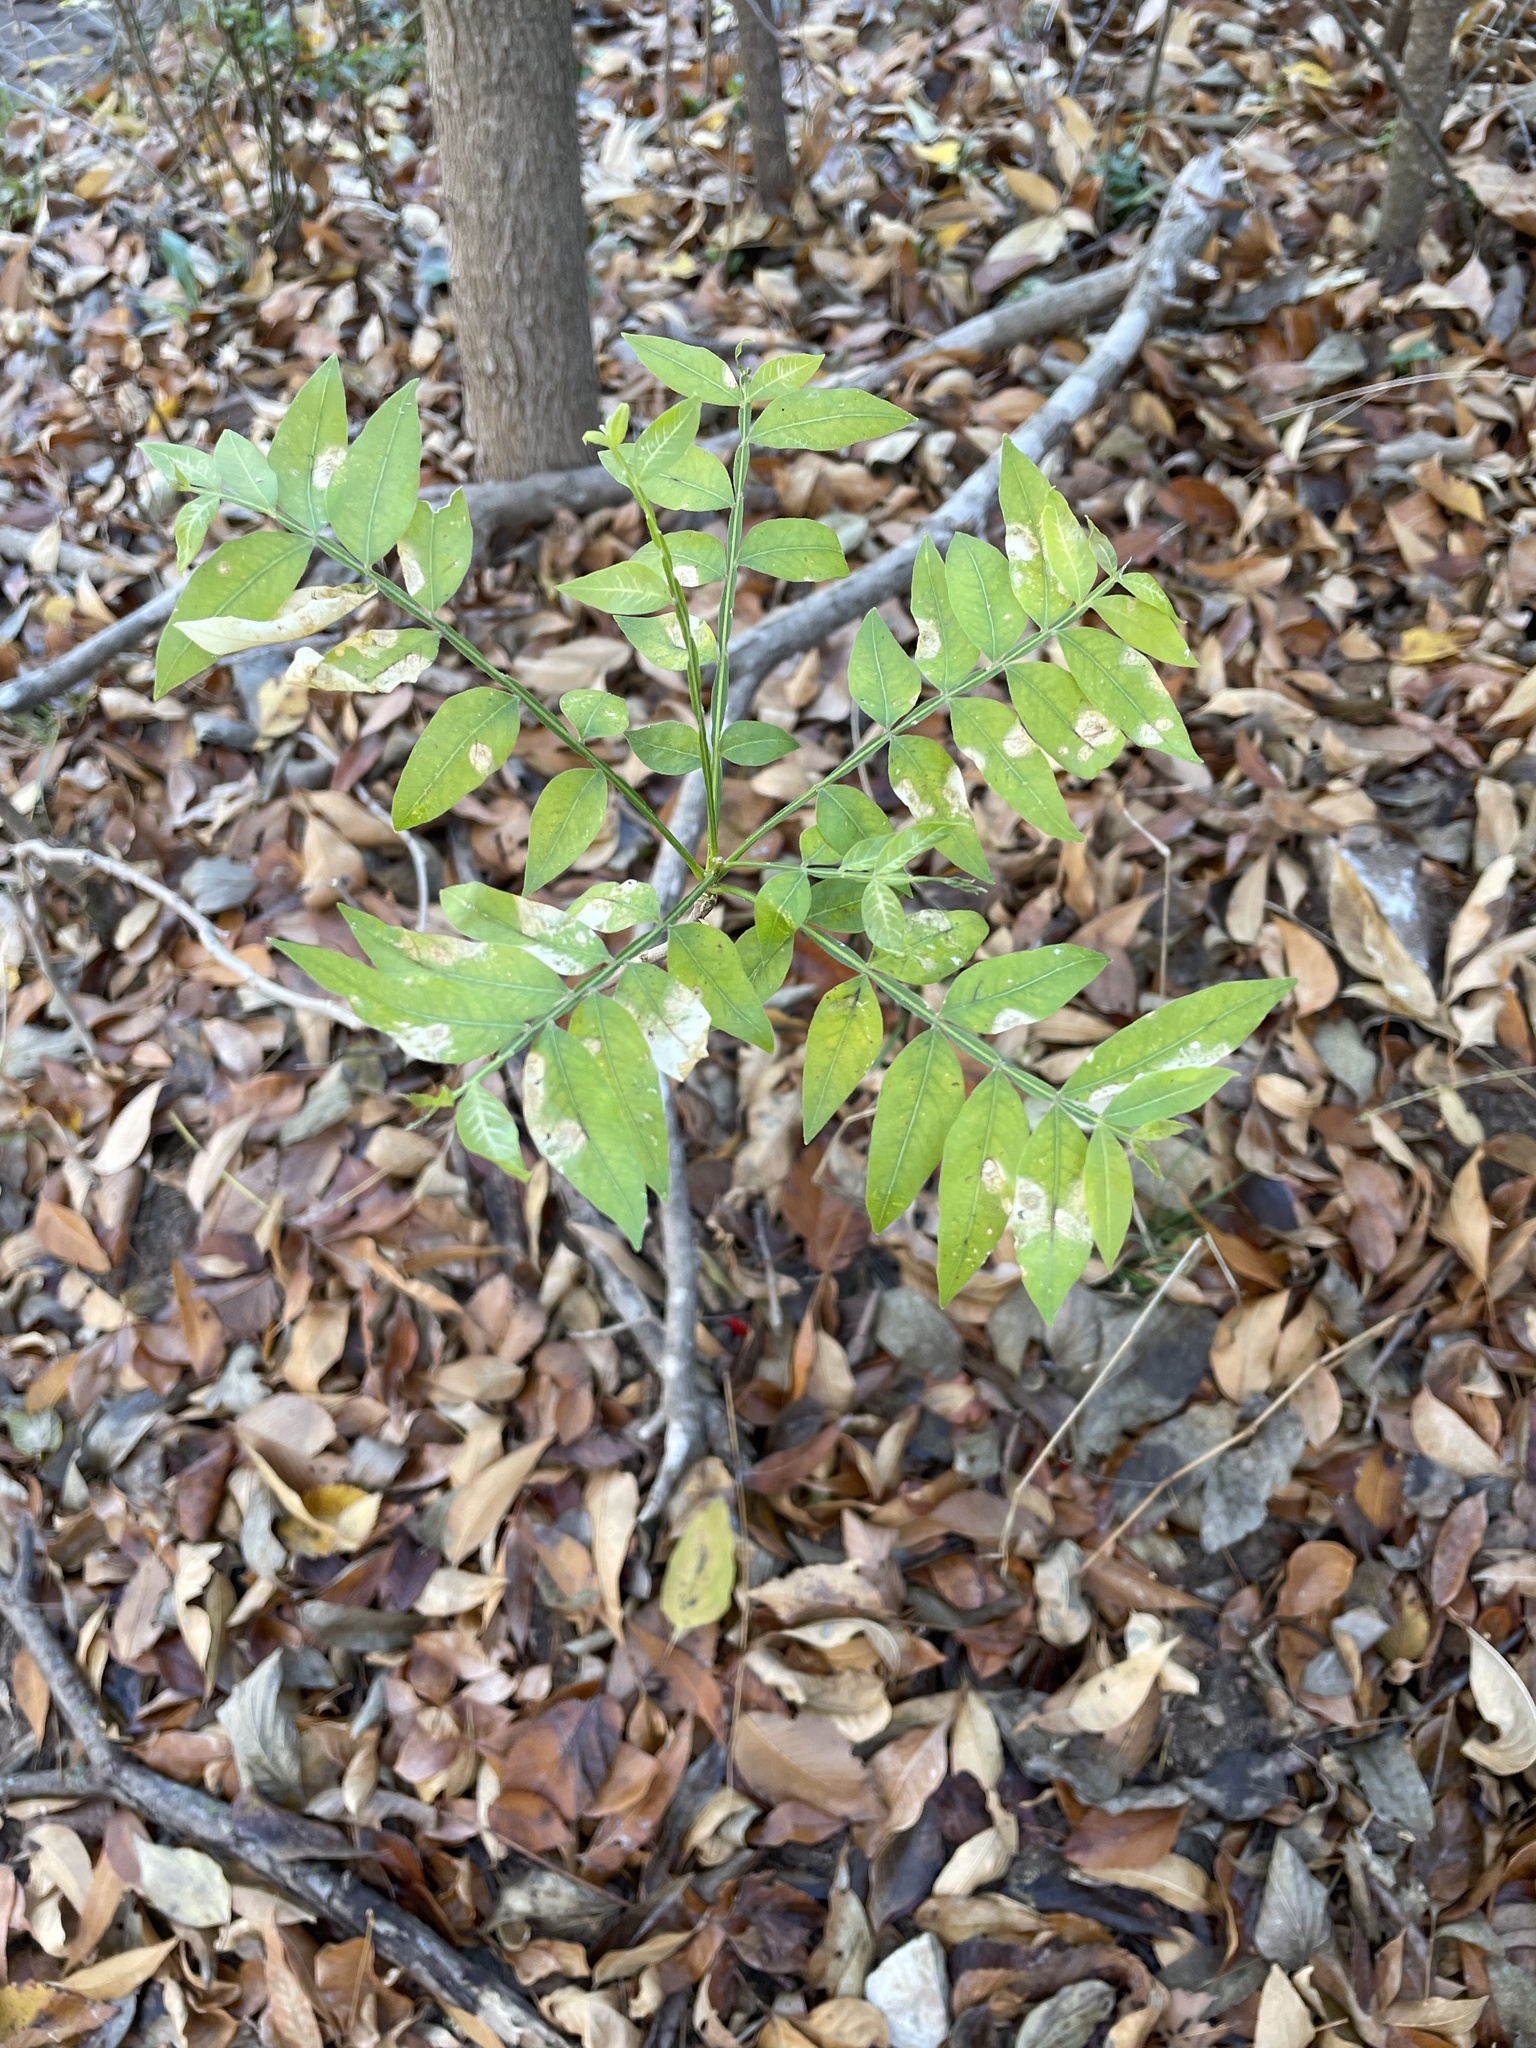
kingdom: Plantae
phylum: Tracheophyta
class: Magnoliopsida
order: Sapindales
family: Sapindaceae
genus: Sapindus
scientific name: Sapindus drummondii
